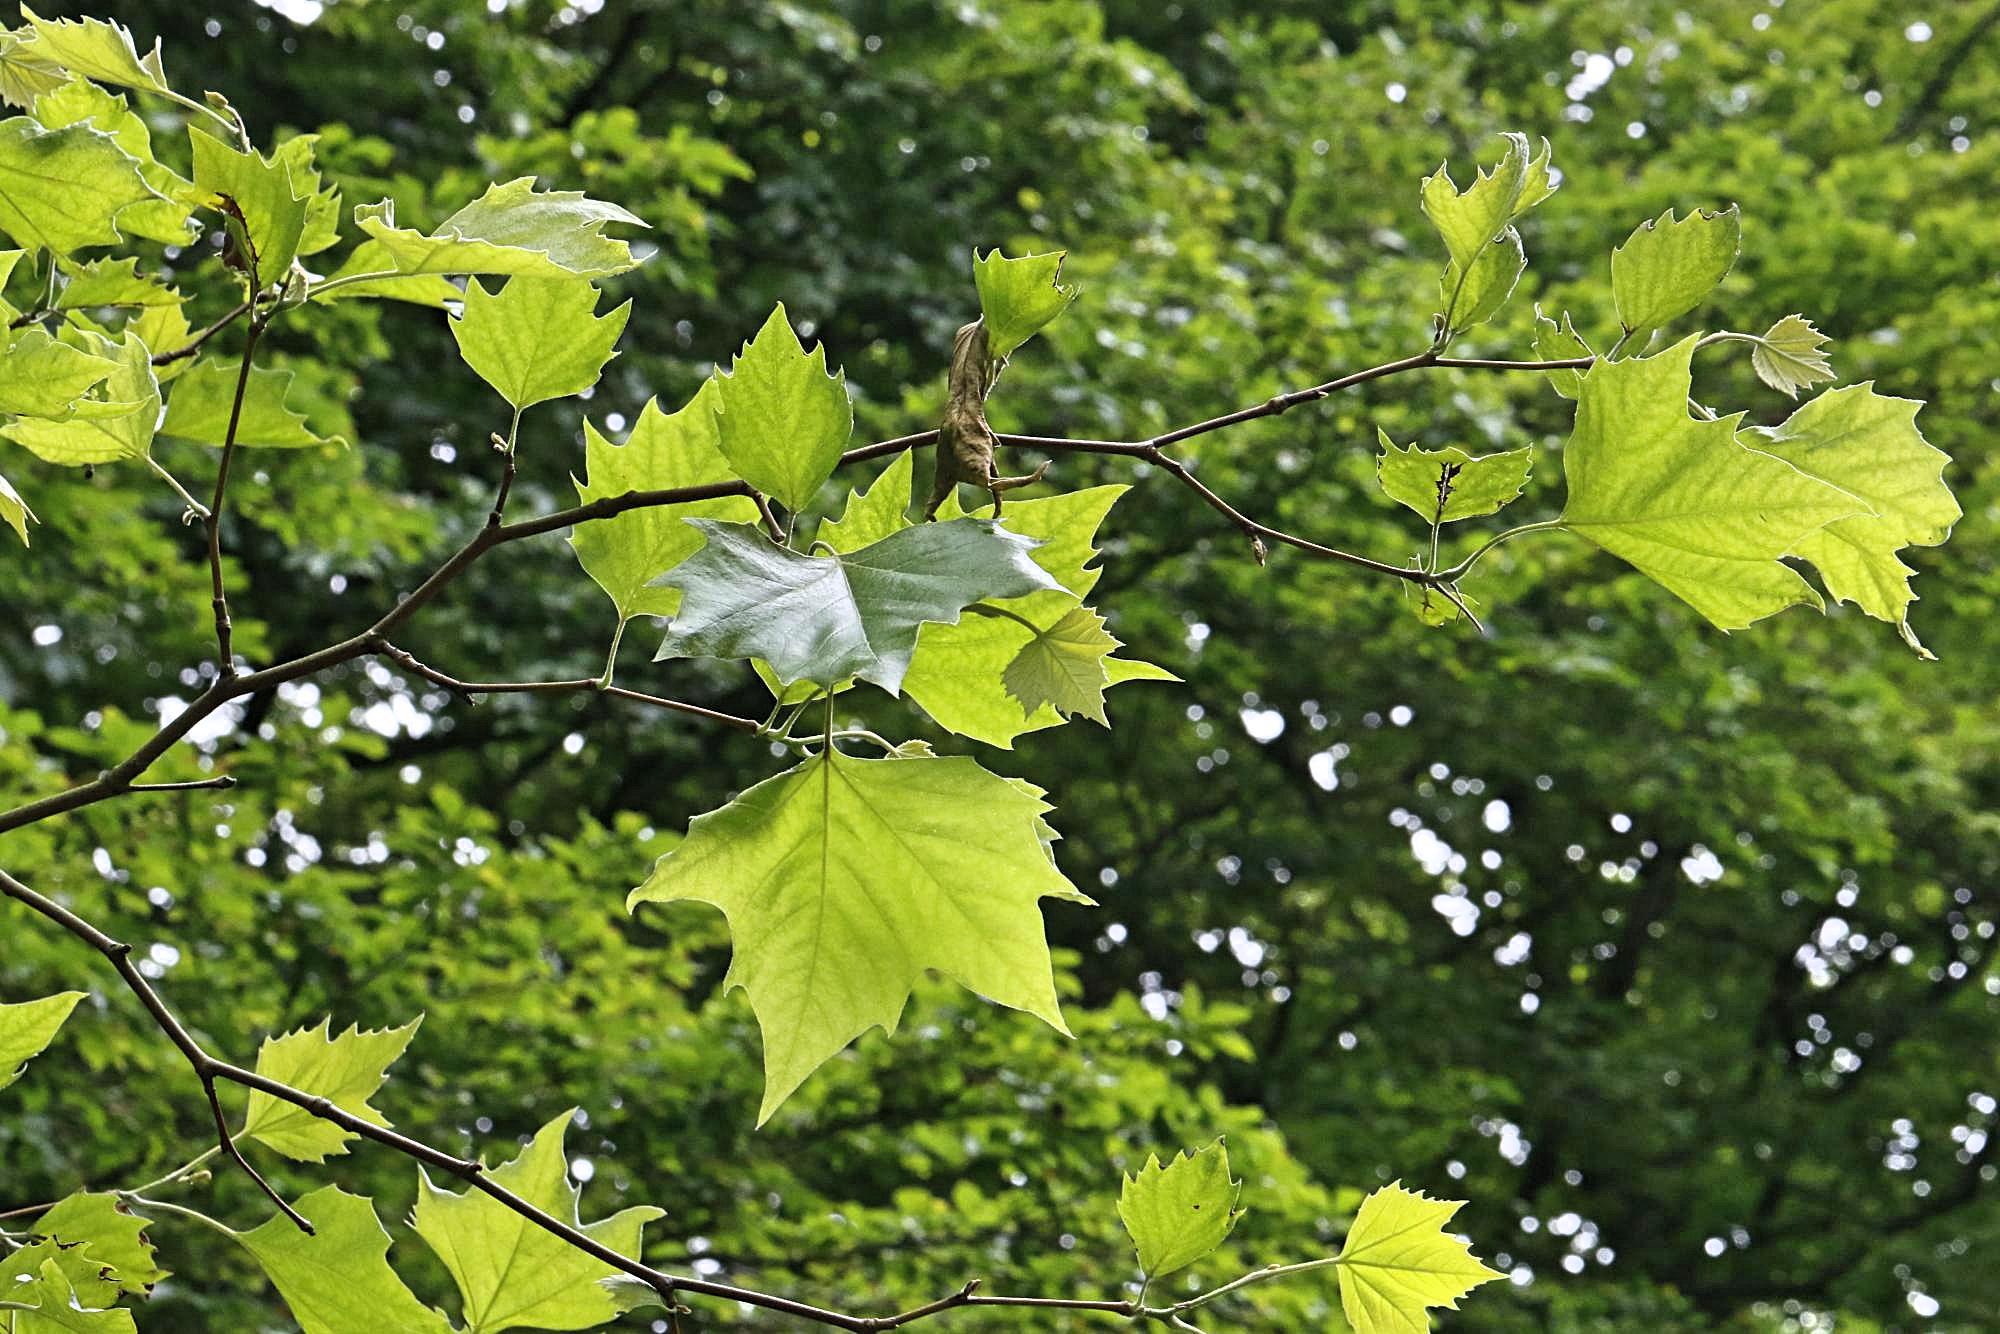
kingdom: Plantae
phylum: Tracheophyta
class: Magnoliopsida
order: Proteales
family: Platanaceae
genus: Platanus
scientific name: Platanus hispanica
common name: London plane
